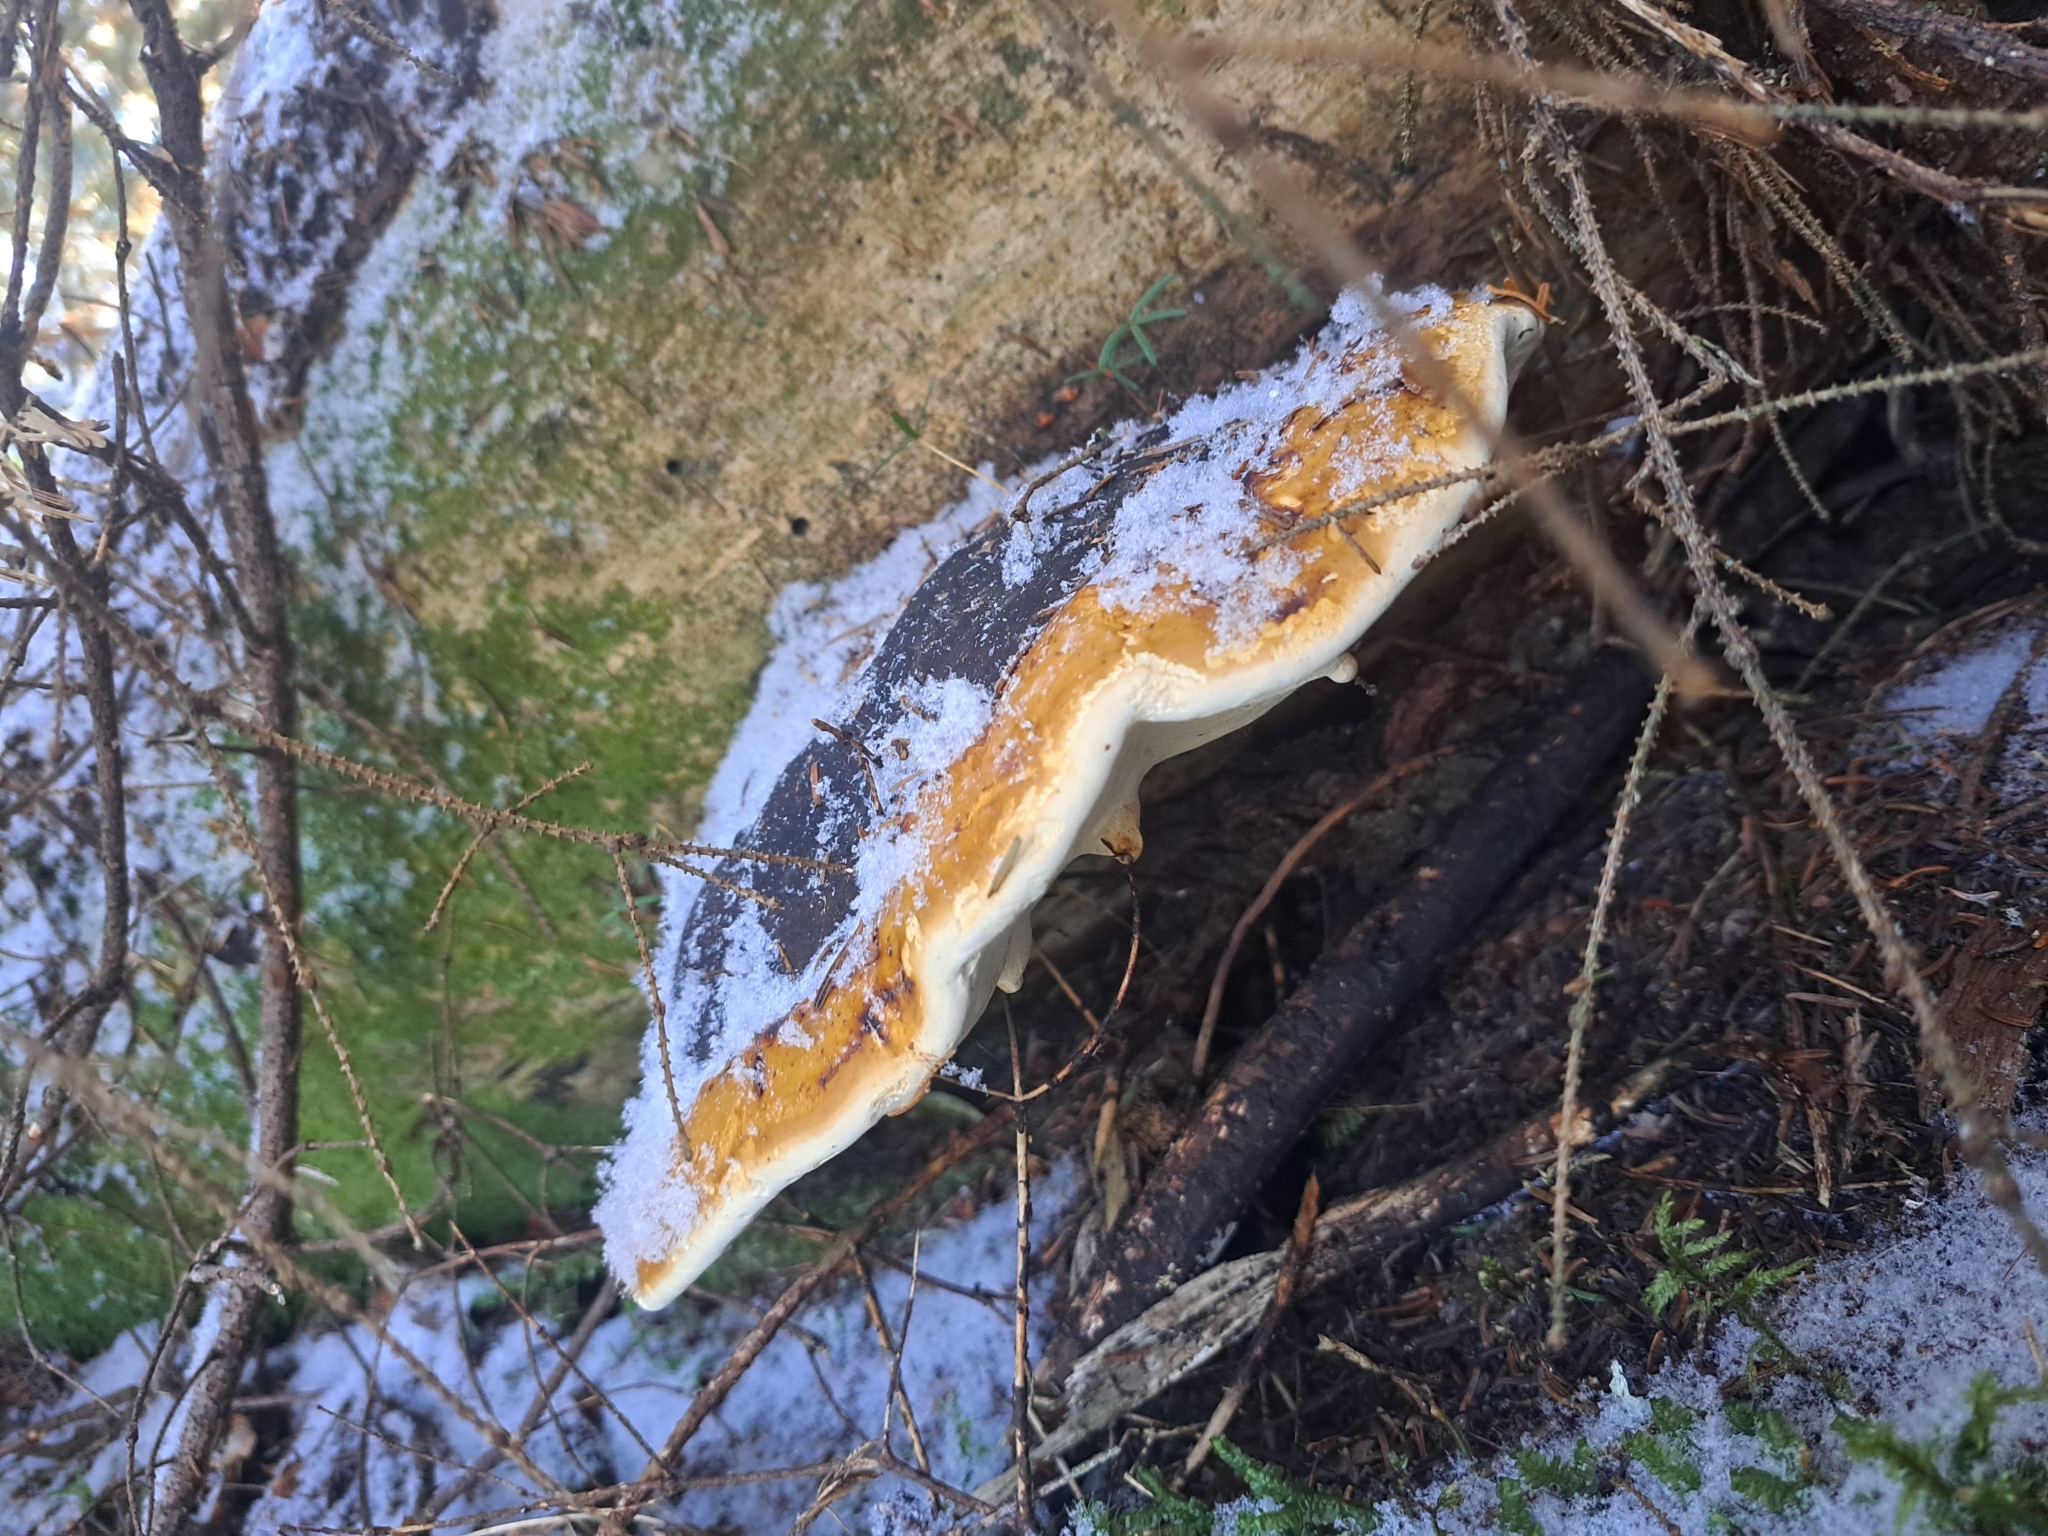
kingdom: Fungi
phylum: Basidiomycota
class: Agaricomycetes
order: Polyporales
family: Fomitopsidaceae
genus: Fomitopsis
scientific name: Fomitopsis mounceae
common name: Northern red belt
